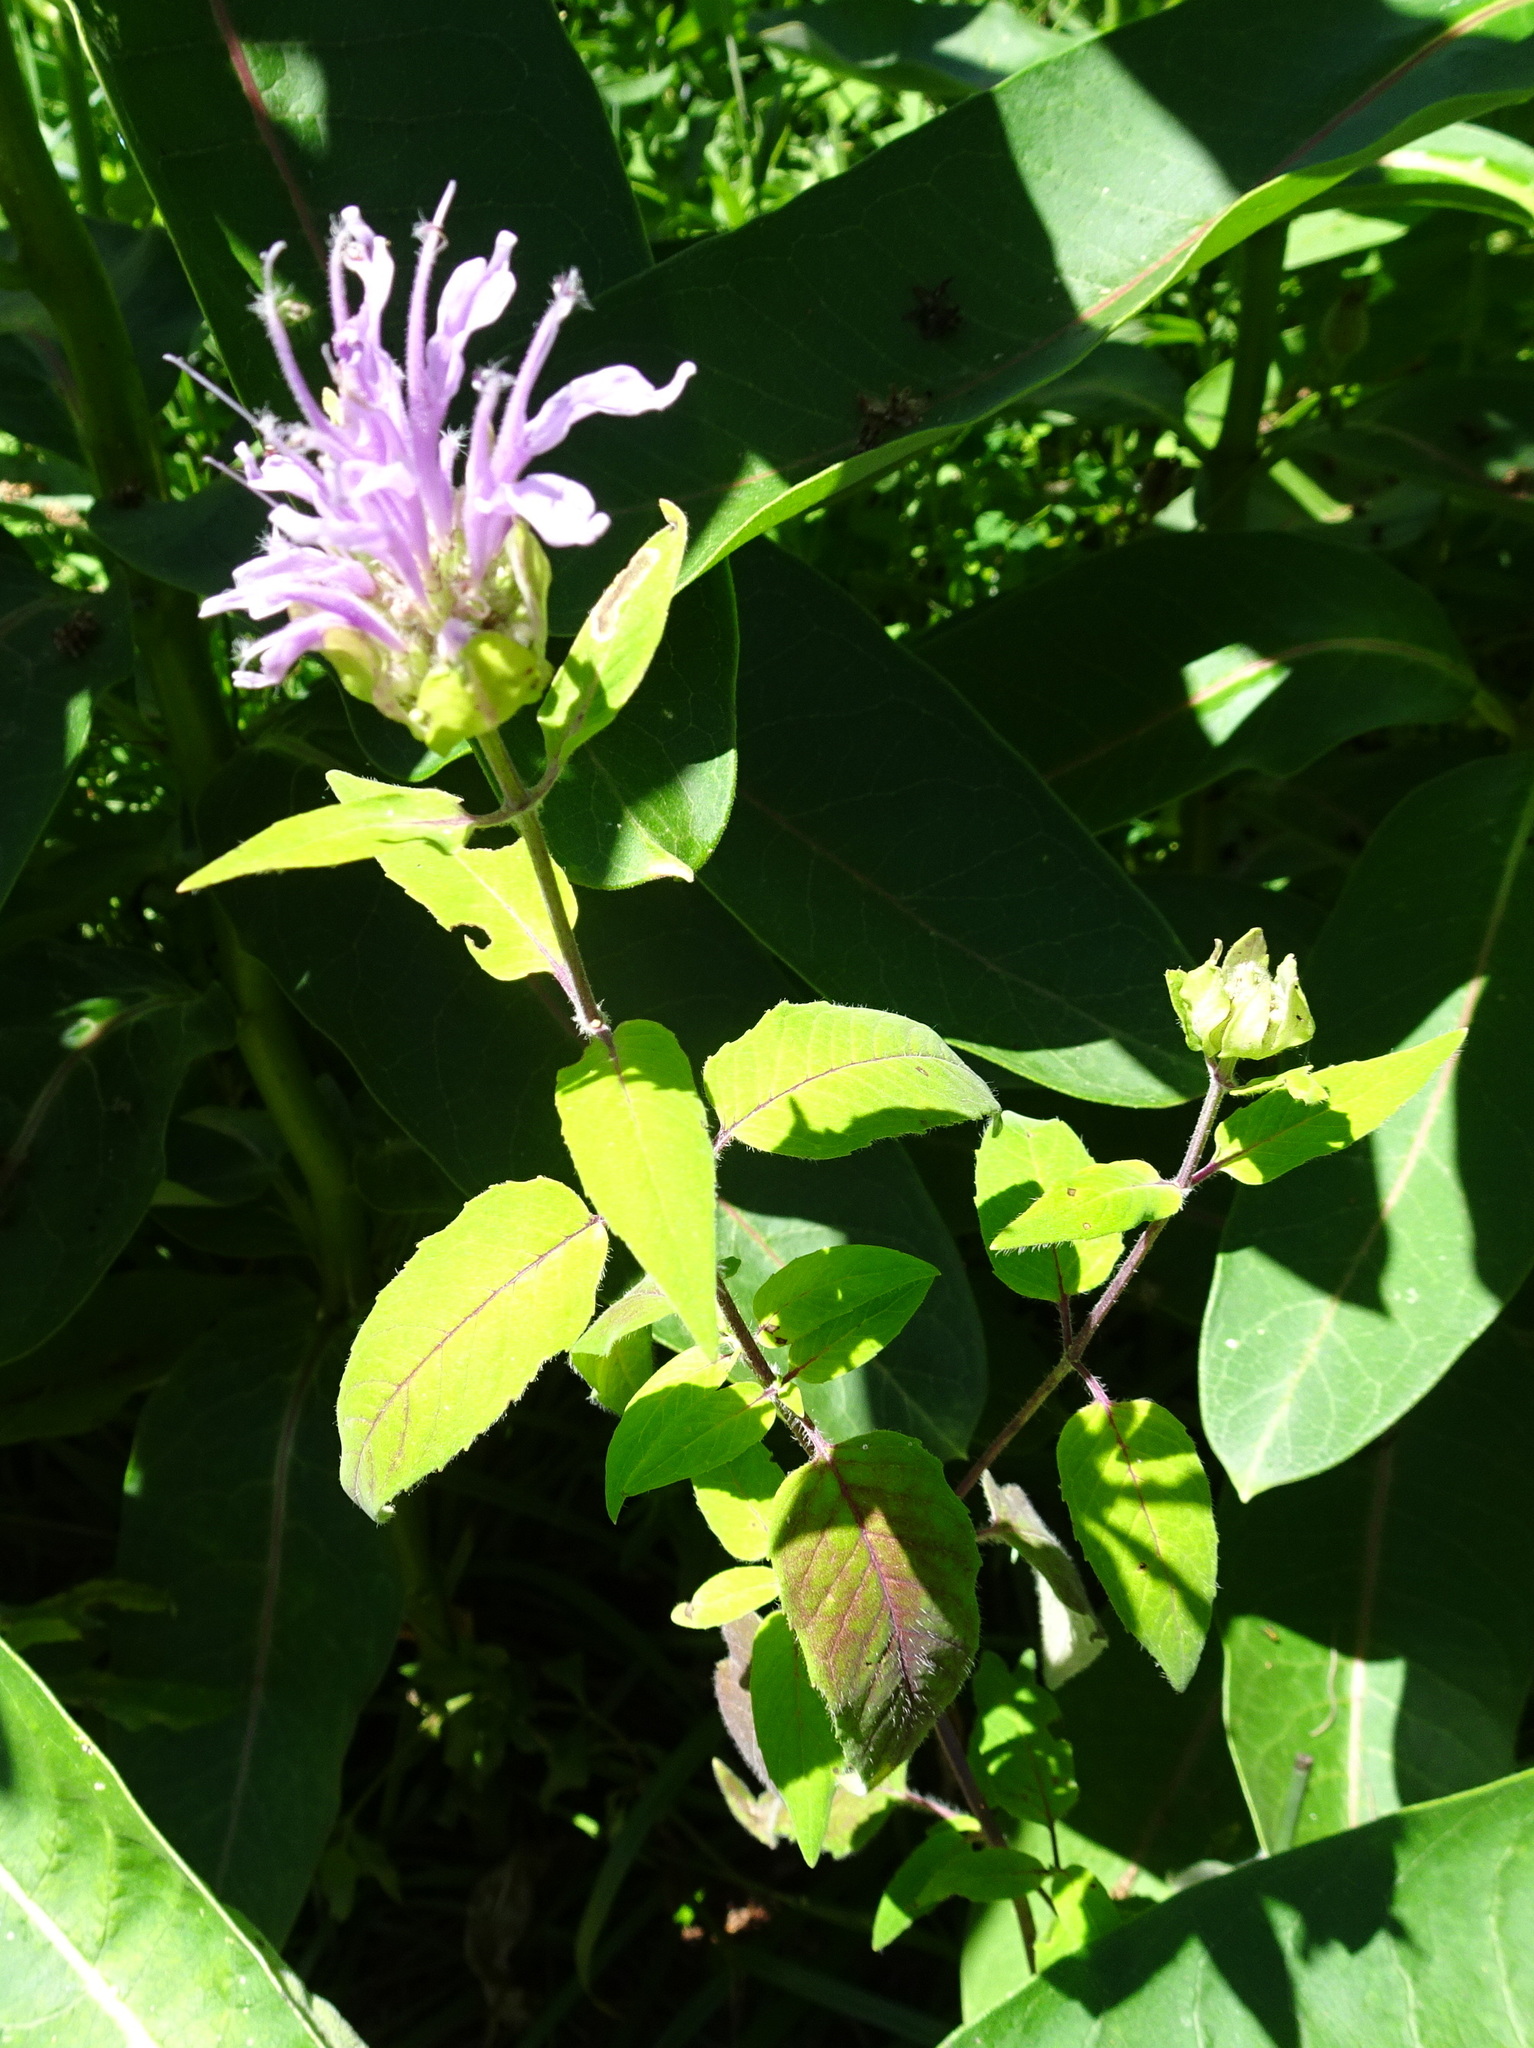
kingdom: Plantae
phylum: Tracheophyta
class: Magnoliopsida
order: Lamiales
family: Lamiaceae
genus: Monarda
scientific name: Monarda fistulosa
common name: Purple beebalm
